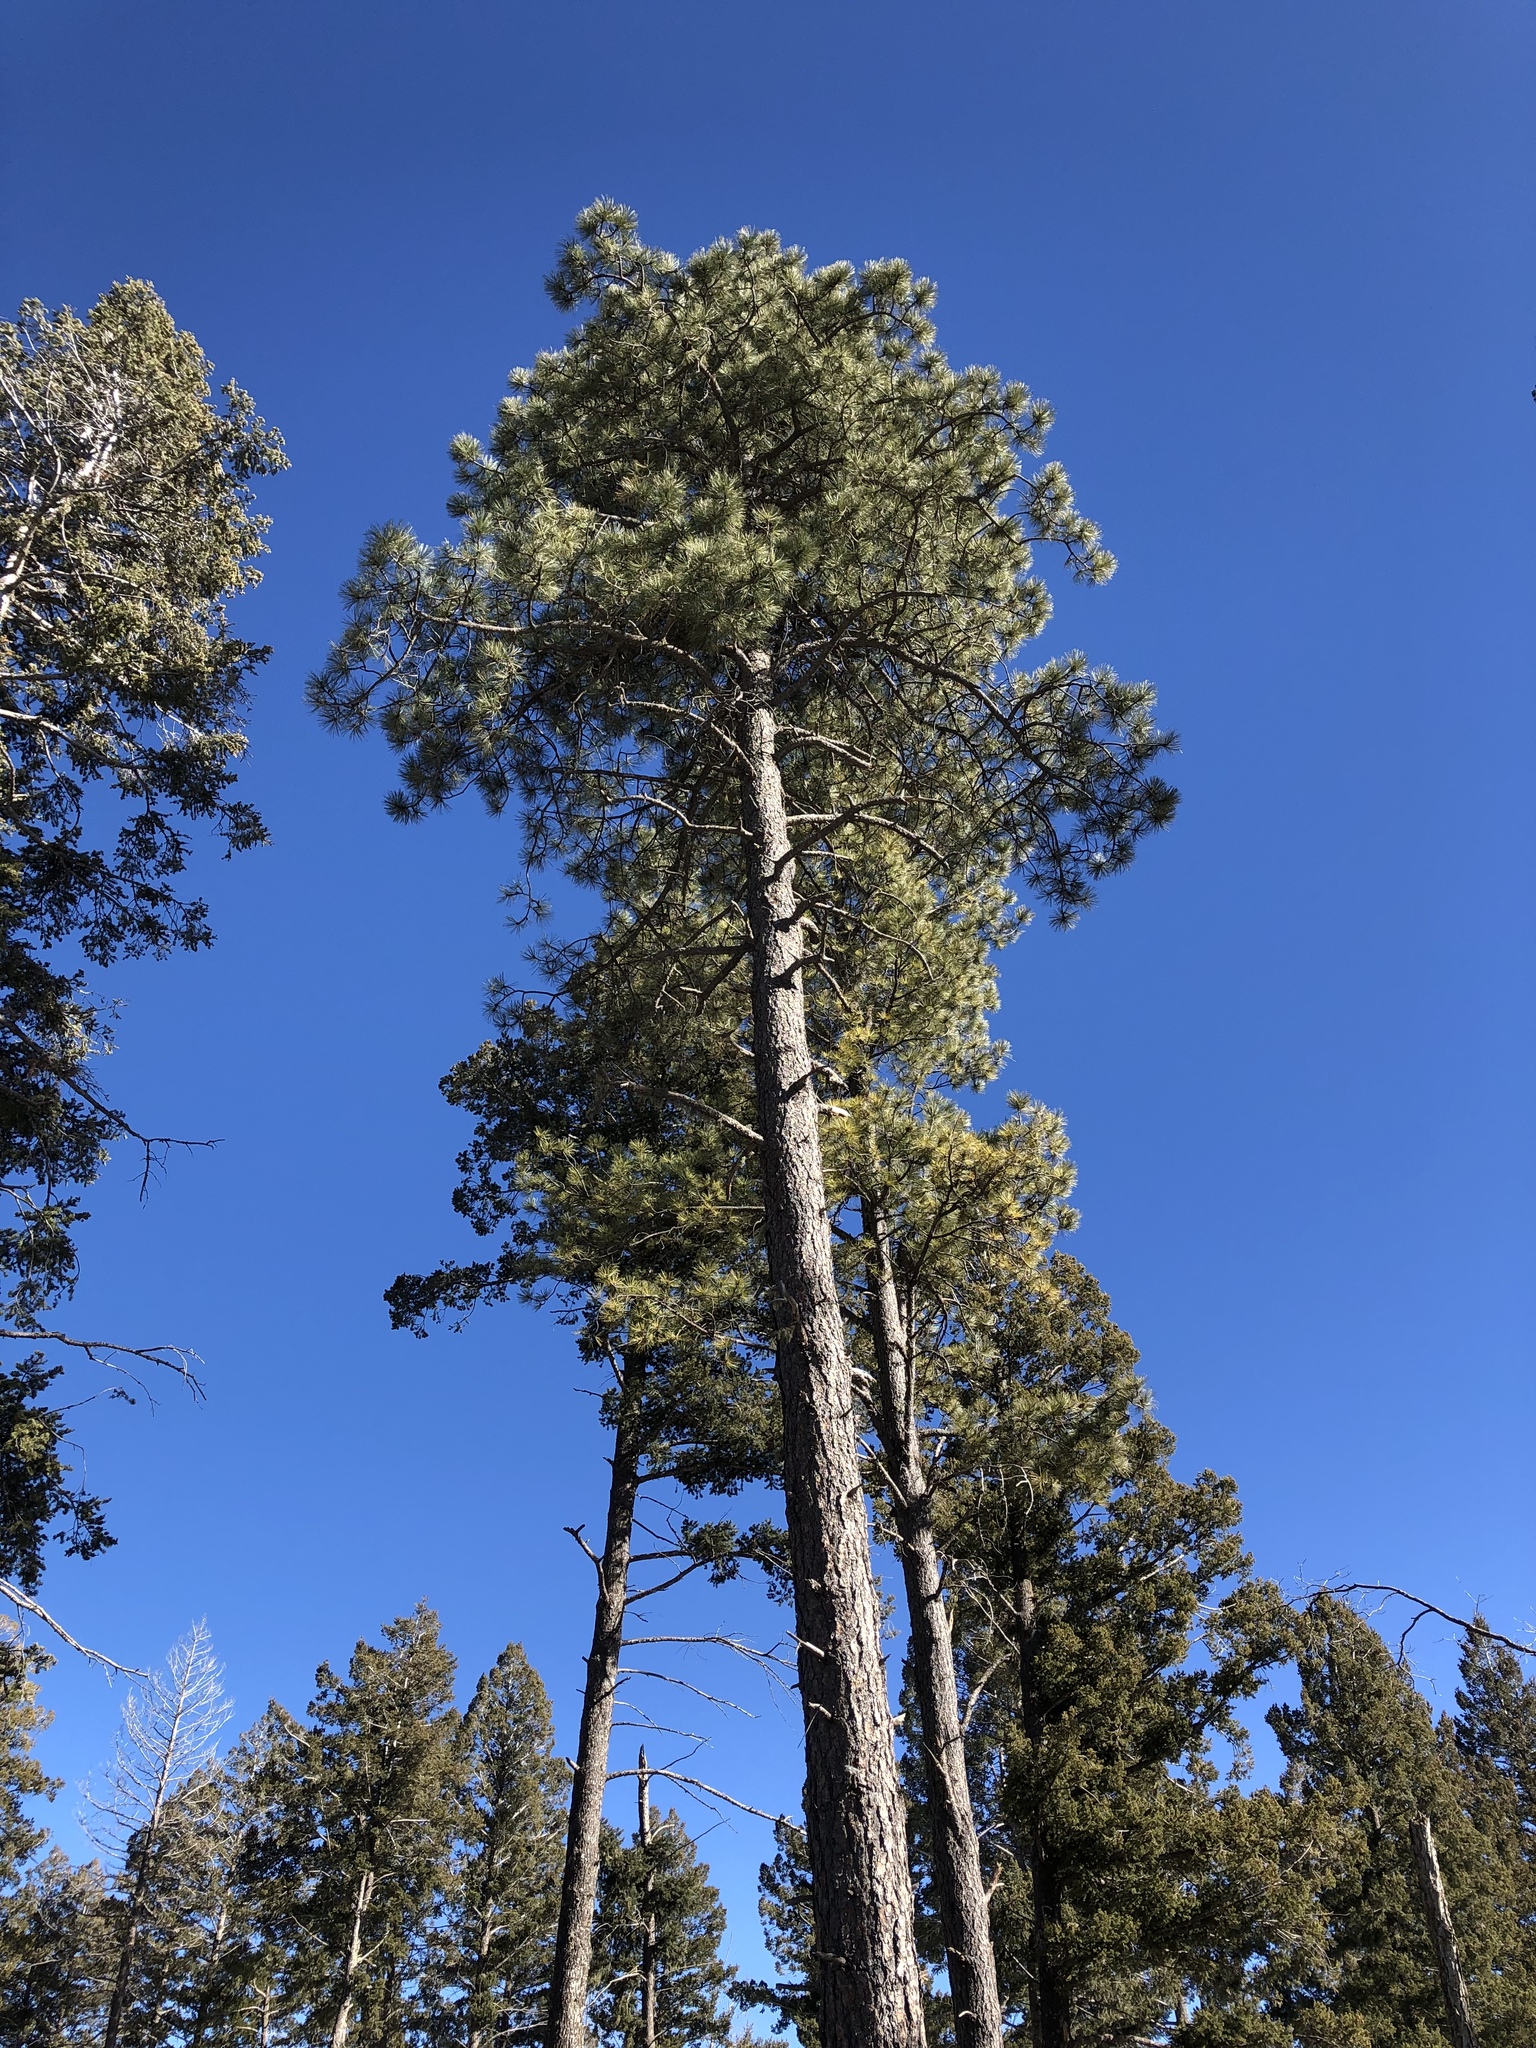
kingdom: Plantae
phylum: Tracheophyta
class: Pinopsida
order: Pinales
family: Pinaceae
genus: Pinus
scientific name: Pinus ponderosa
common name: Western yellow-pine
